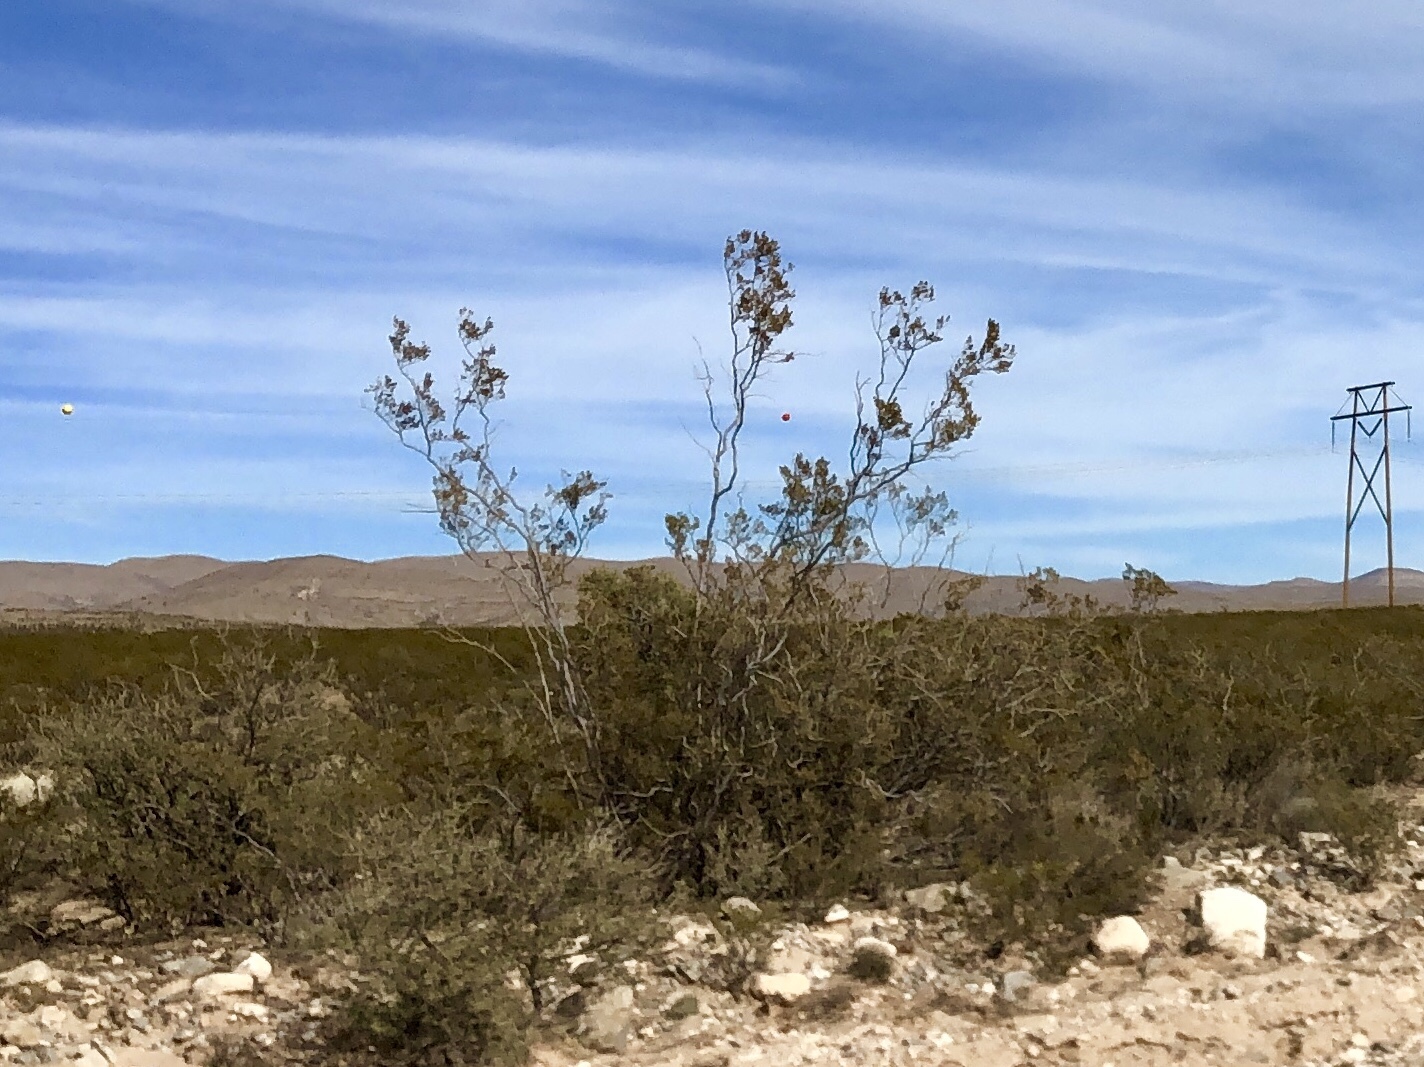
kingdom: Plantae
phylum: Tracheophyta
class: Magnoliopsida
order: Zygophyllales
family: Zygophyllaceae
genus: Larrea
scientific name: Larrea tridentata
